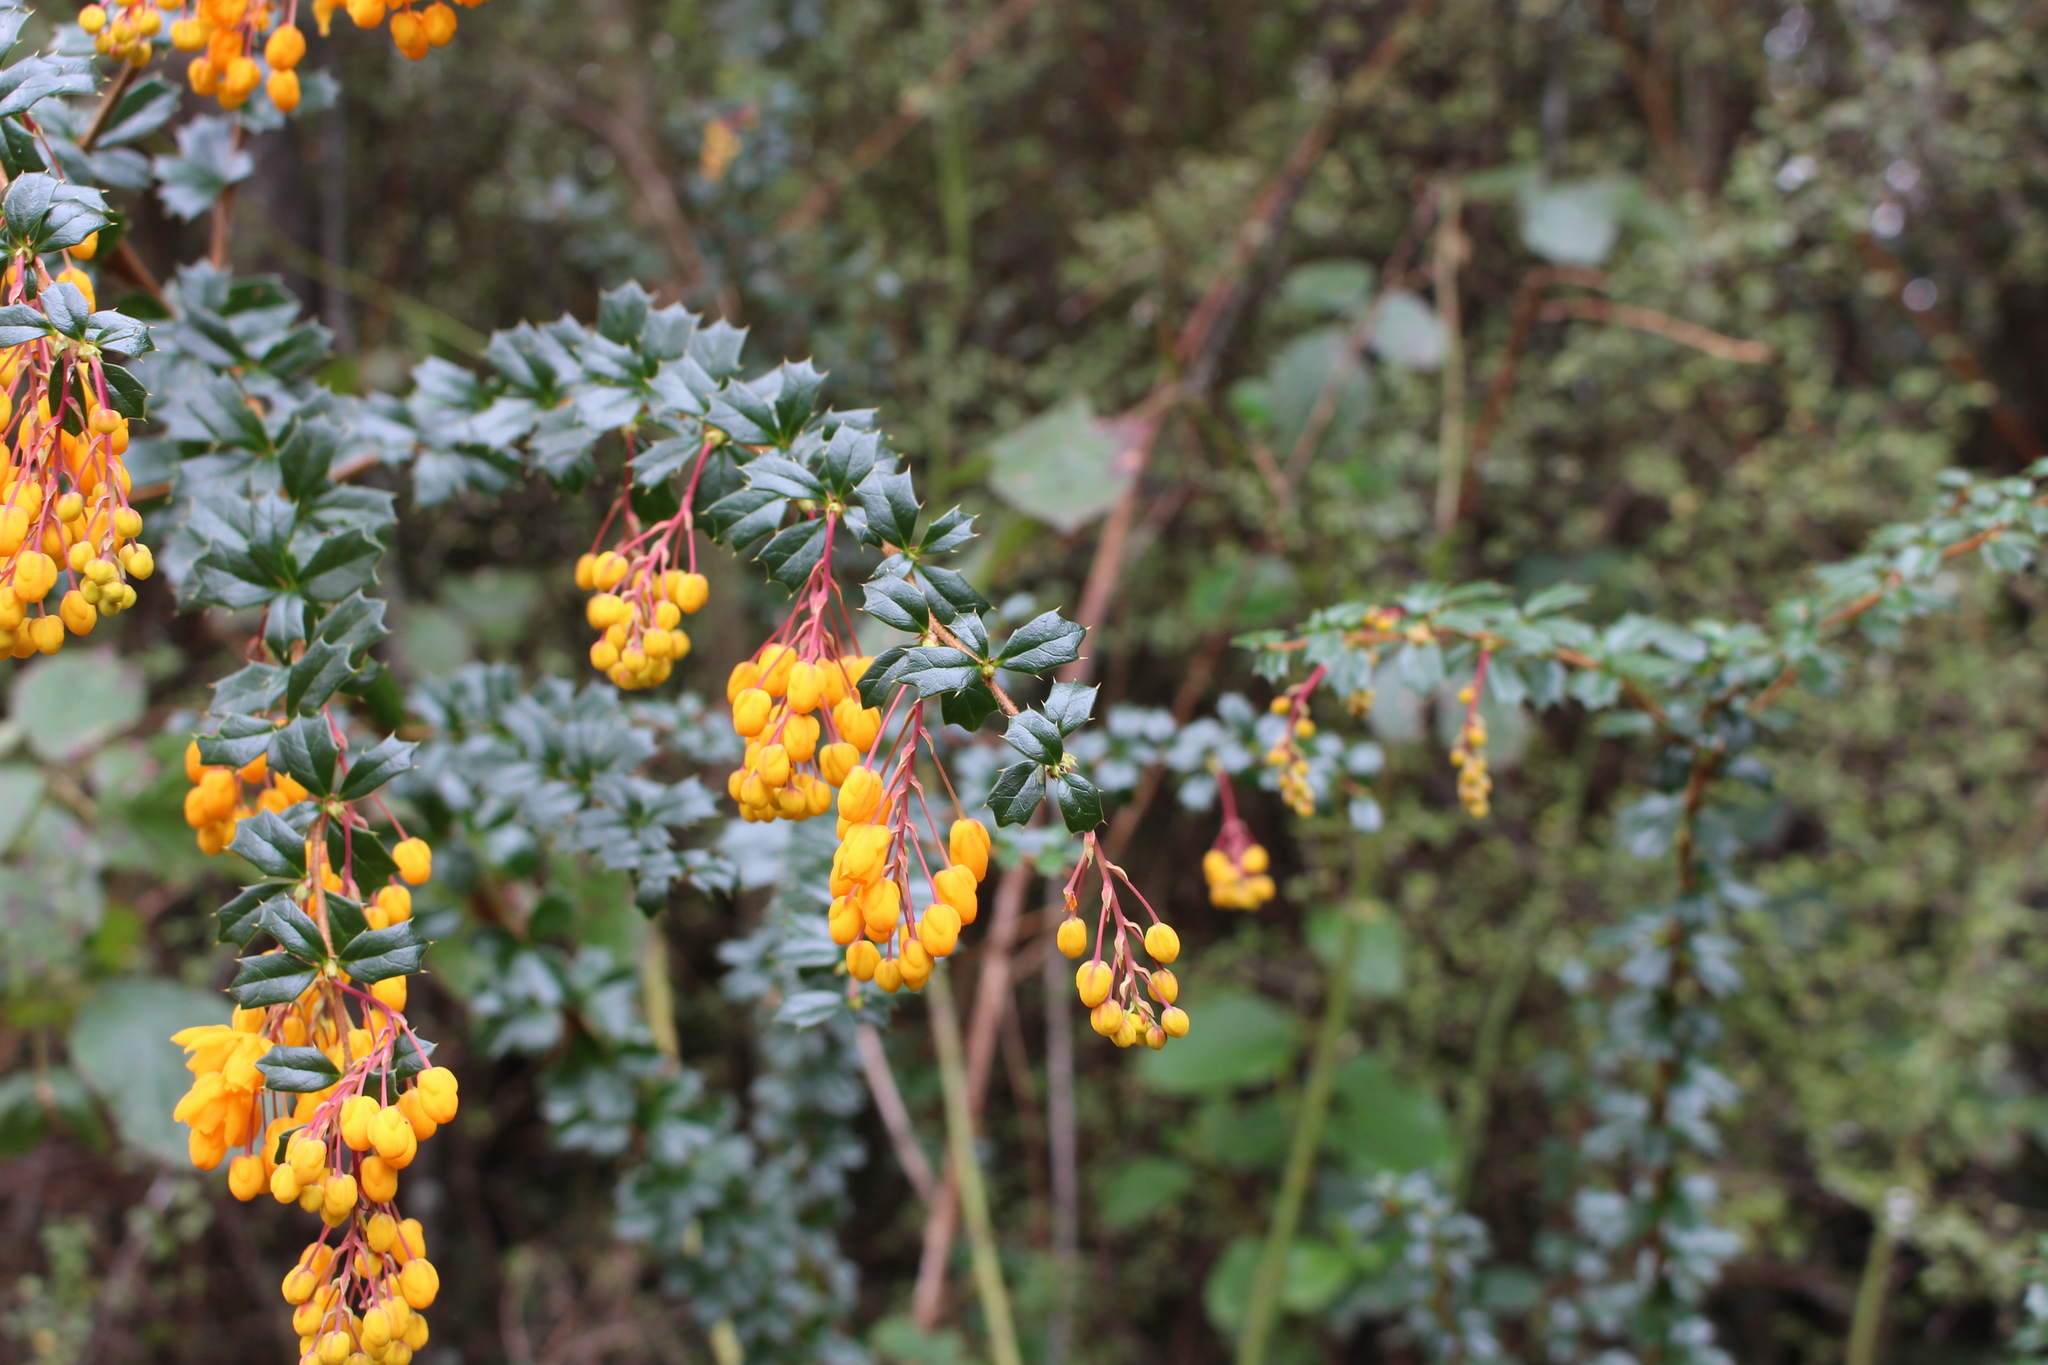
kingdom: Plantae
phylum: Tracheophyta
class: Magnoliopsida
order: Ranunculales
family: Berberidaceae
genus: Berberis
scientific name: Berberis darwinii
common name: Darwin's barberry
